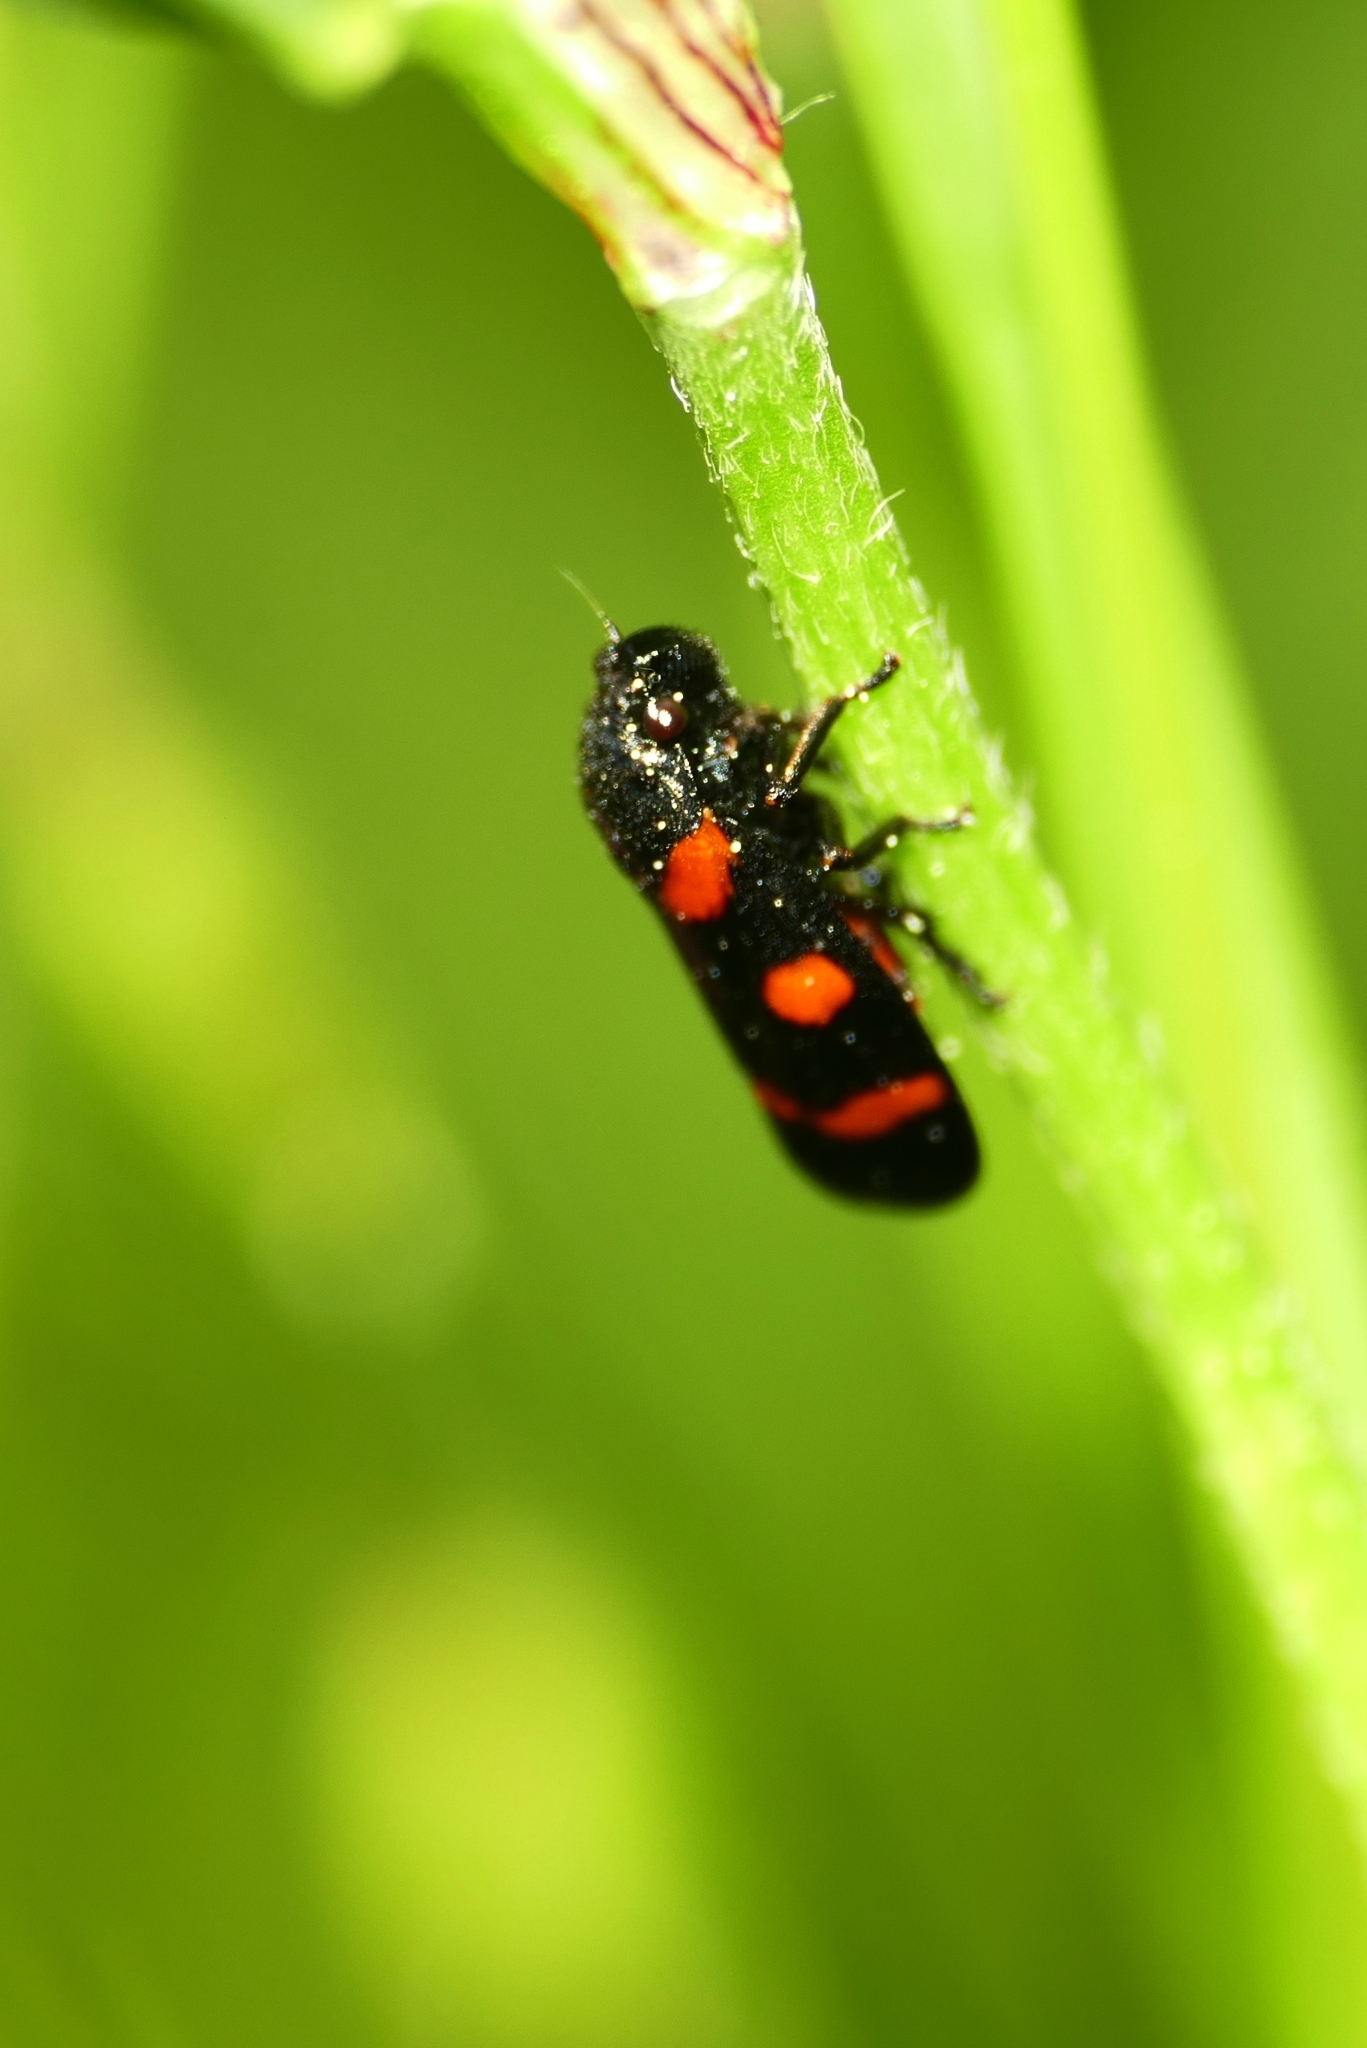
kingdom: Animalia
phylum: Arthropoda
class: Insecta
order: Hemiptera
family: Cercopidae
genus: Cercopis
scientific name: Cercopis sanguinolenta
